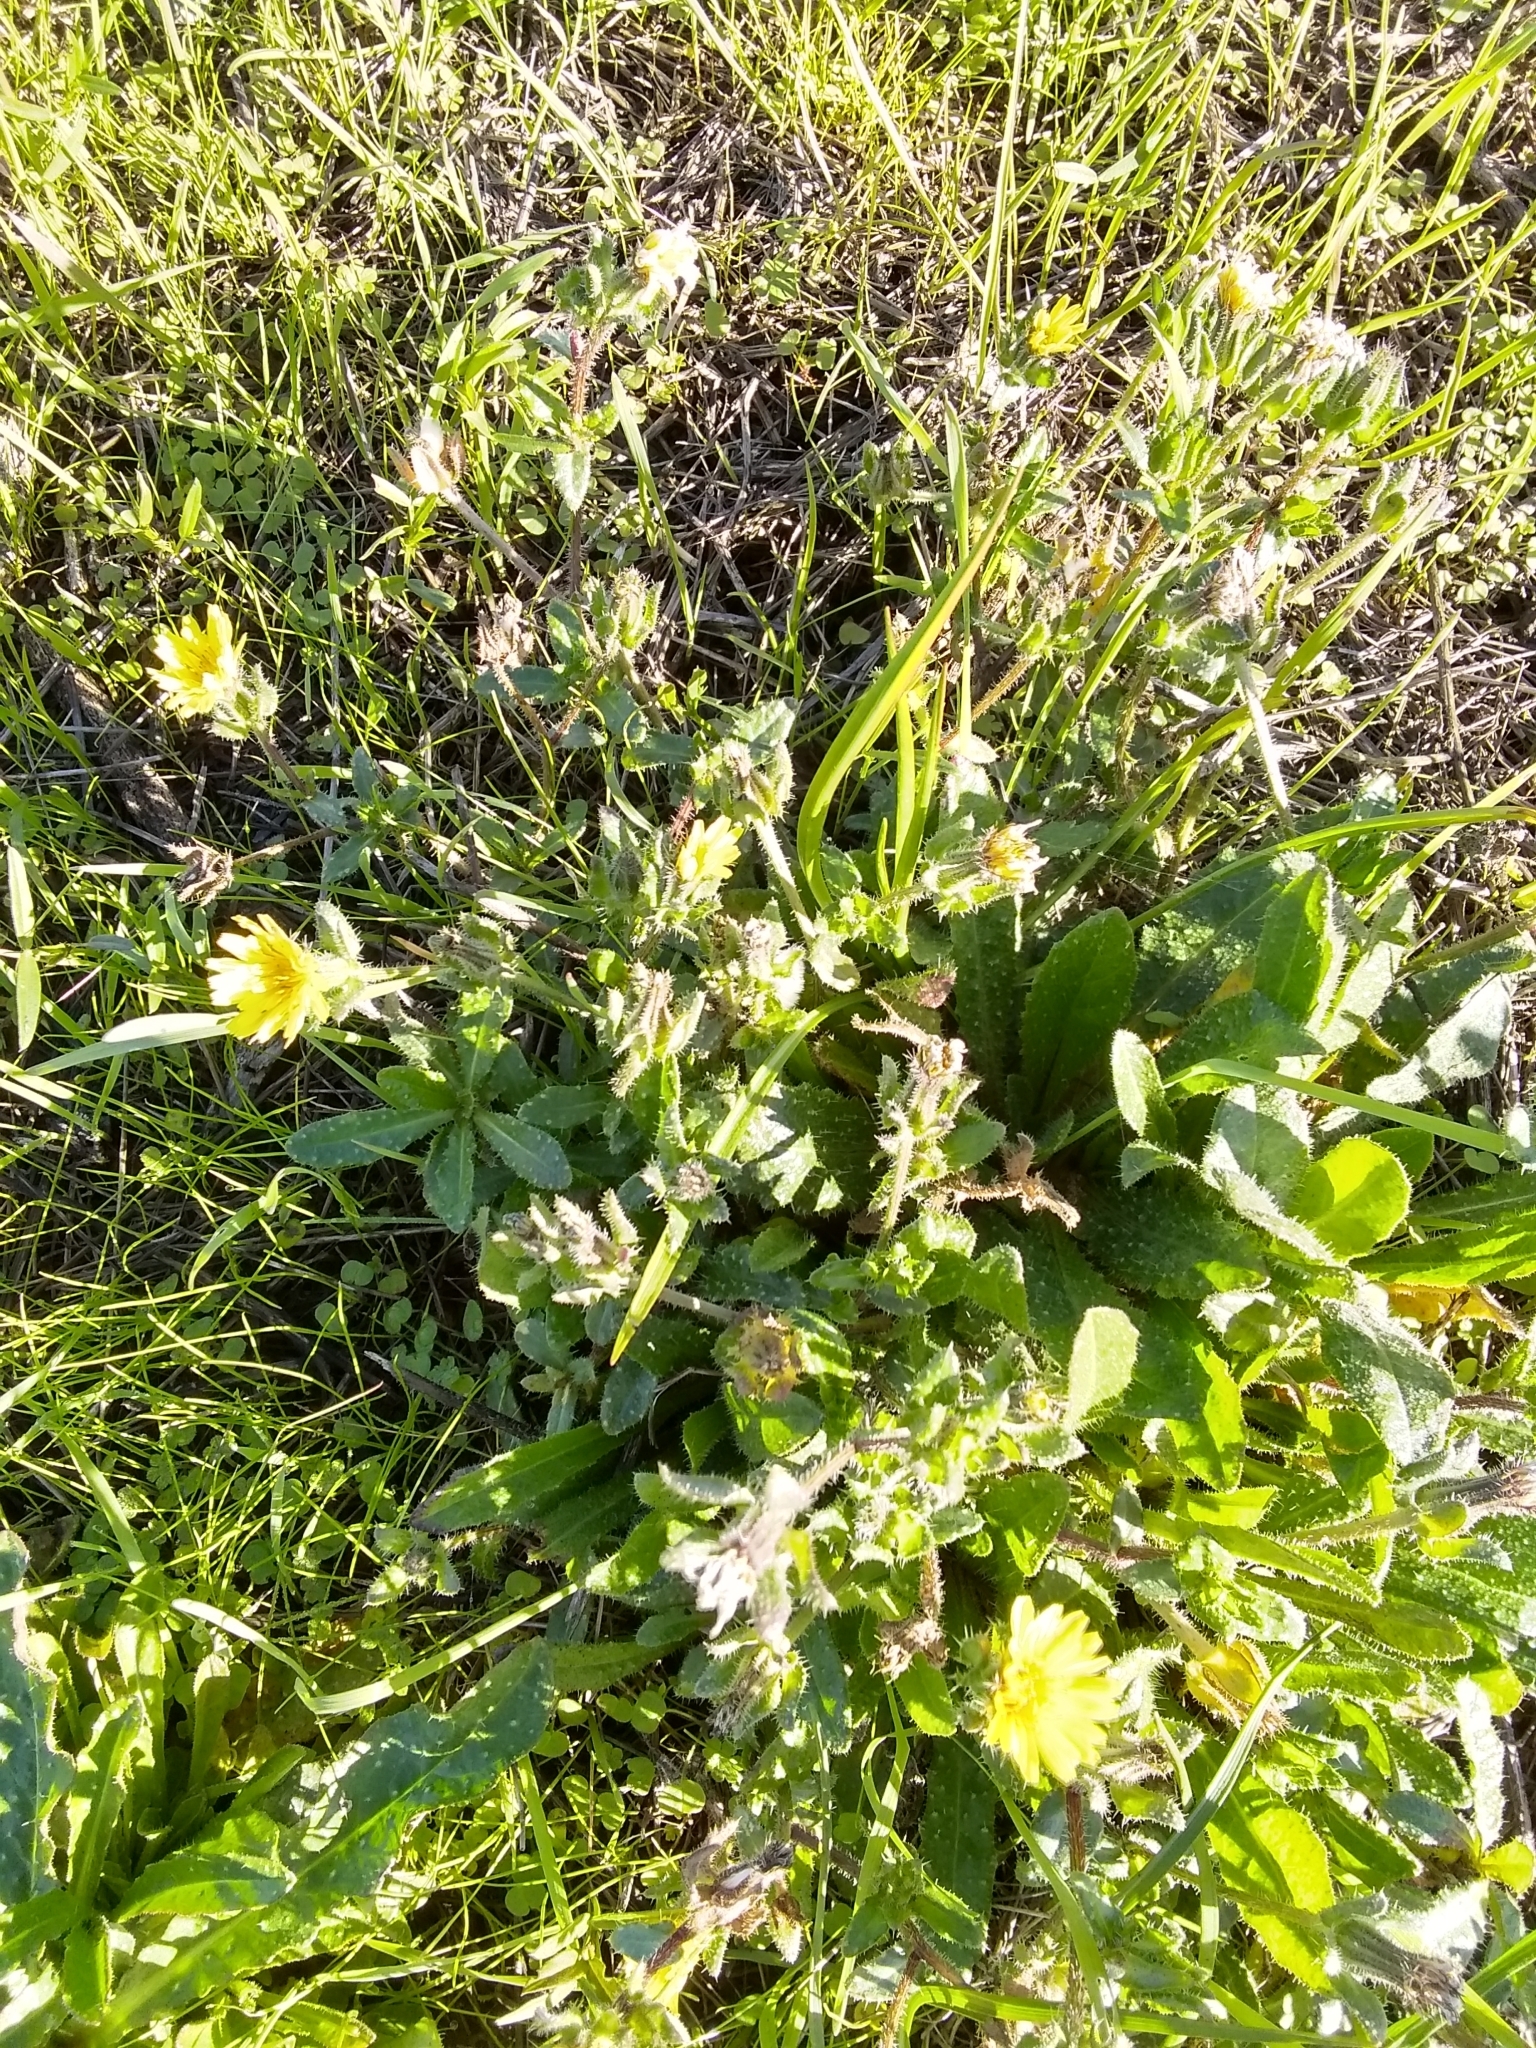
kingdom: Plantae
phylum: Tracheophyta
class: Magnoliopsida
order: Asterales
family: Asteraceae
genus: Helminthotheca
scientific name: Helminthotheca echioides
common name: Ox-tongue
